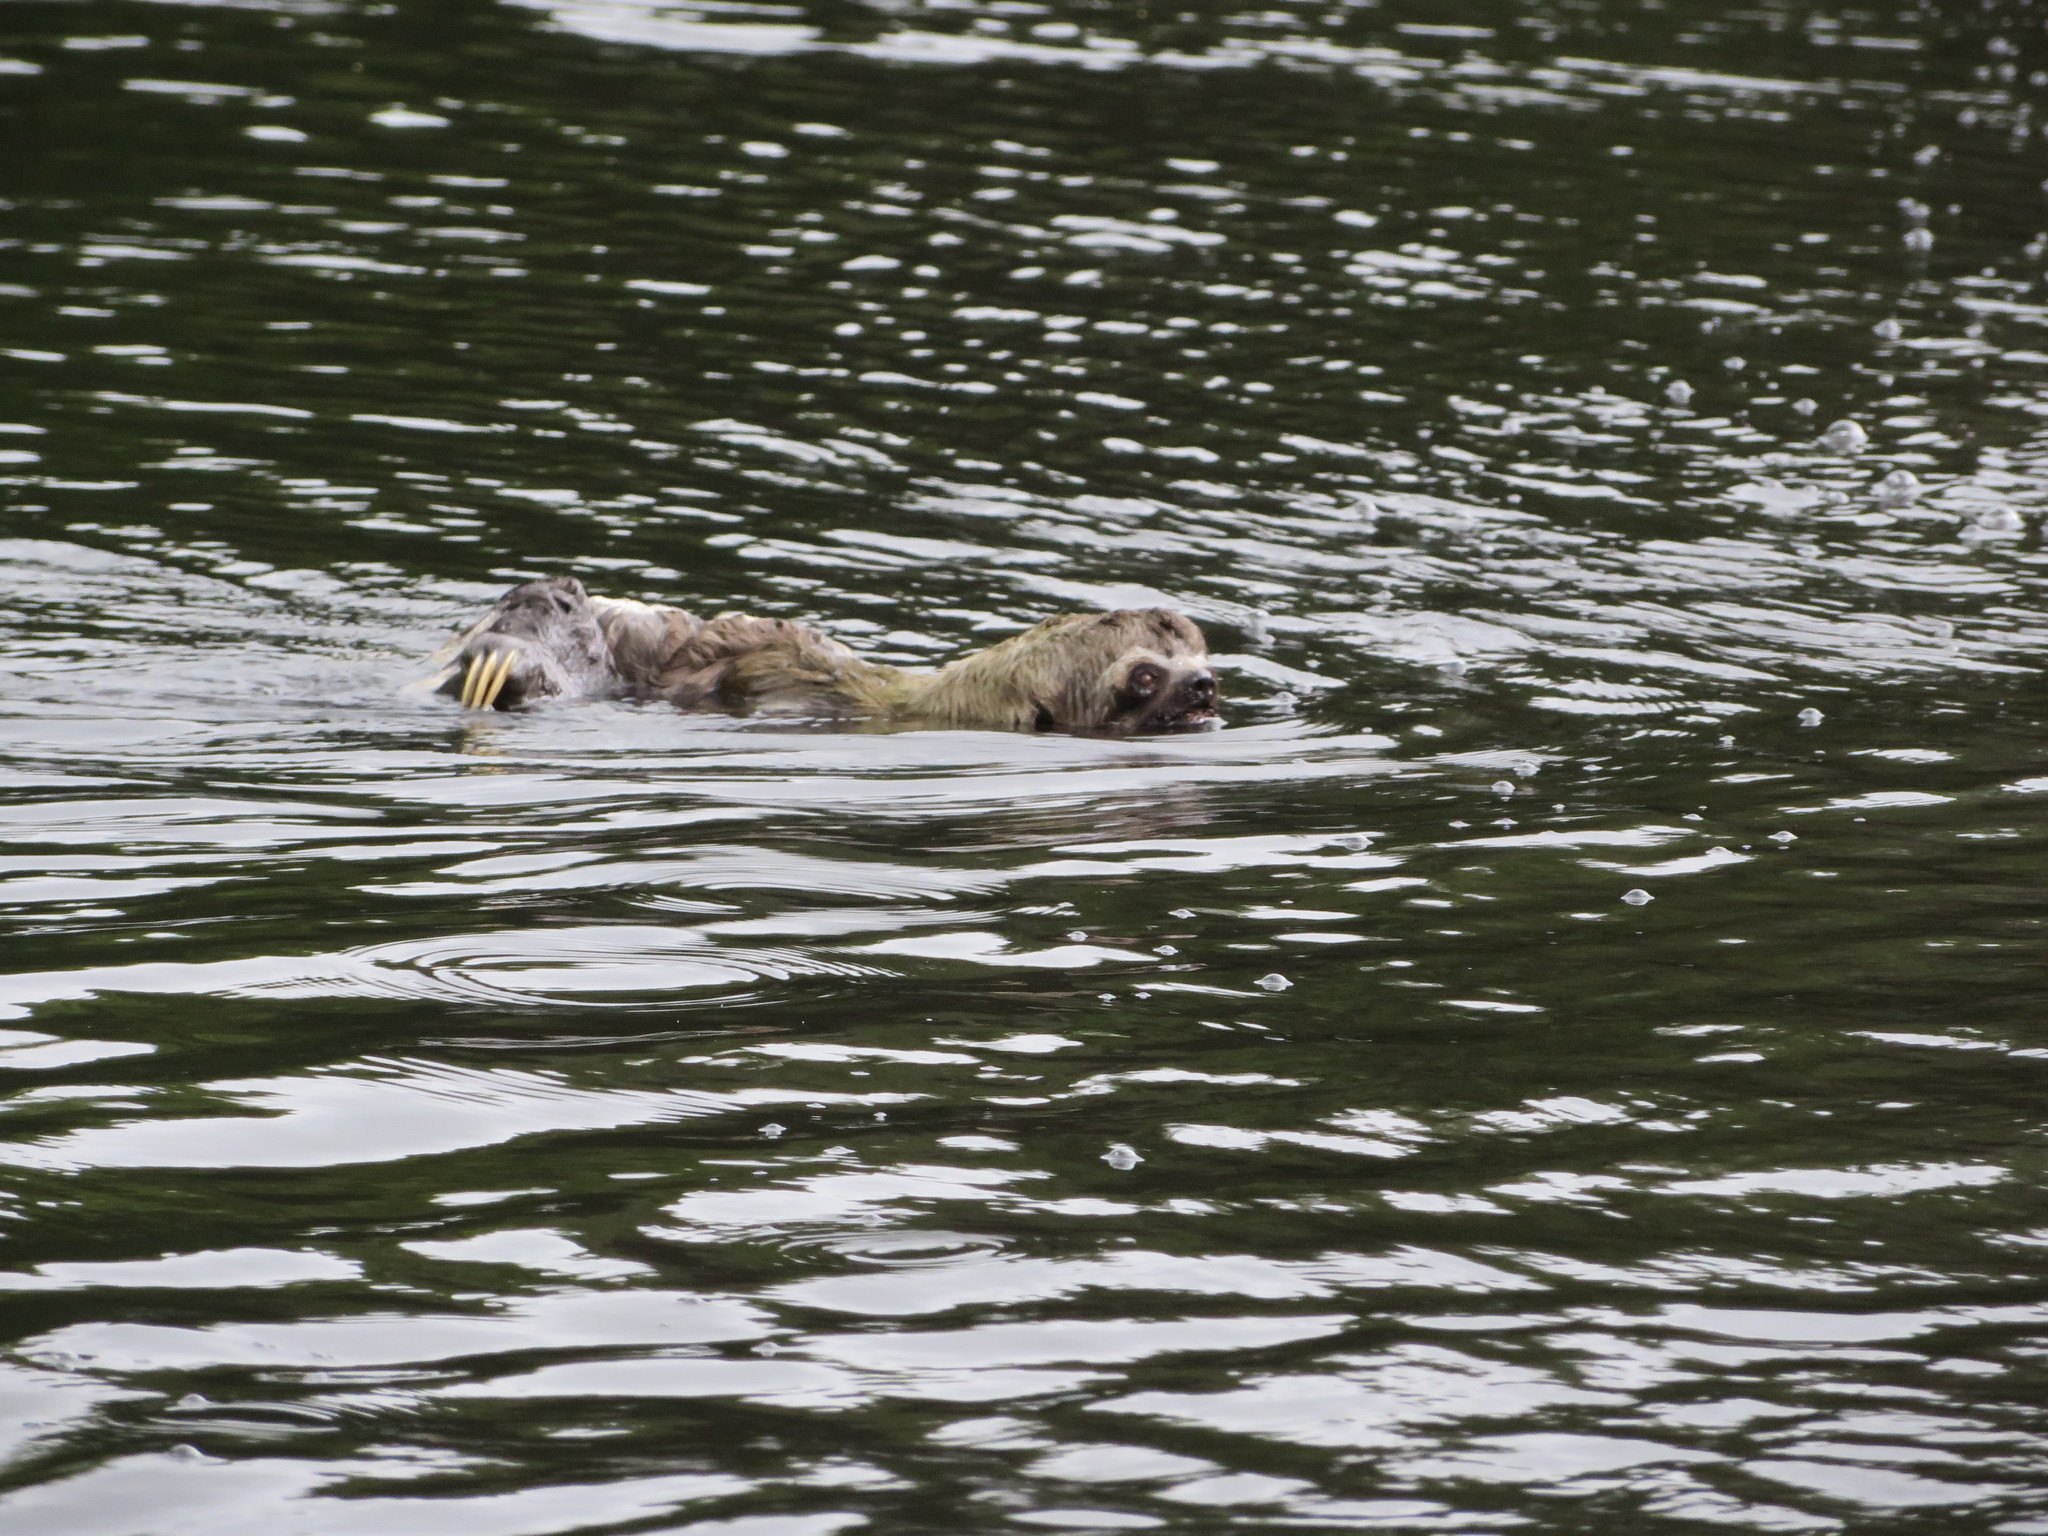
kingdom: Animalia
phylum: Chordata
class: Mammalia
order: Pilosa
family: Bradypodidae
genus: Bradypus
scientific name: Bradypus variegatus
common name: Brown-throated three-toed sloth
